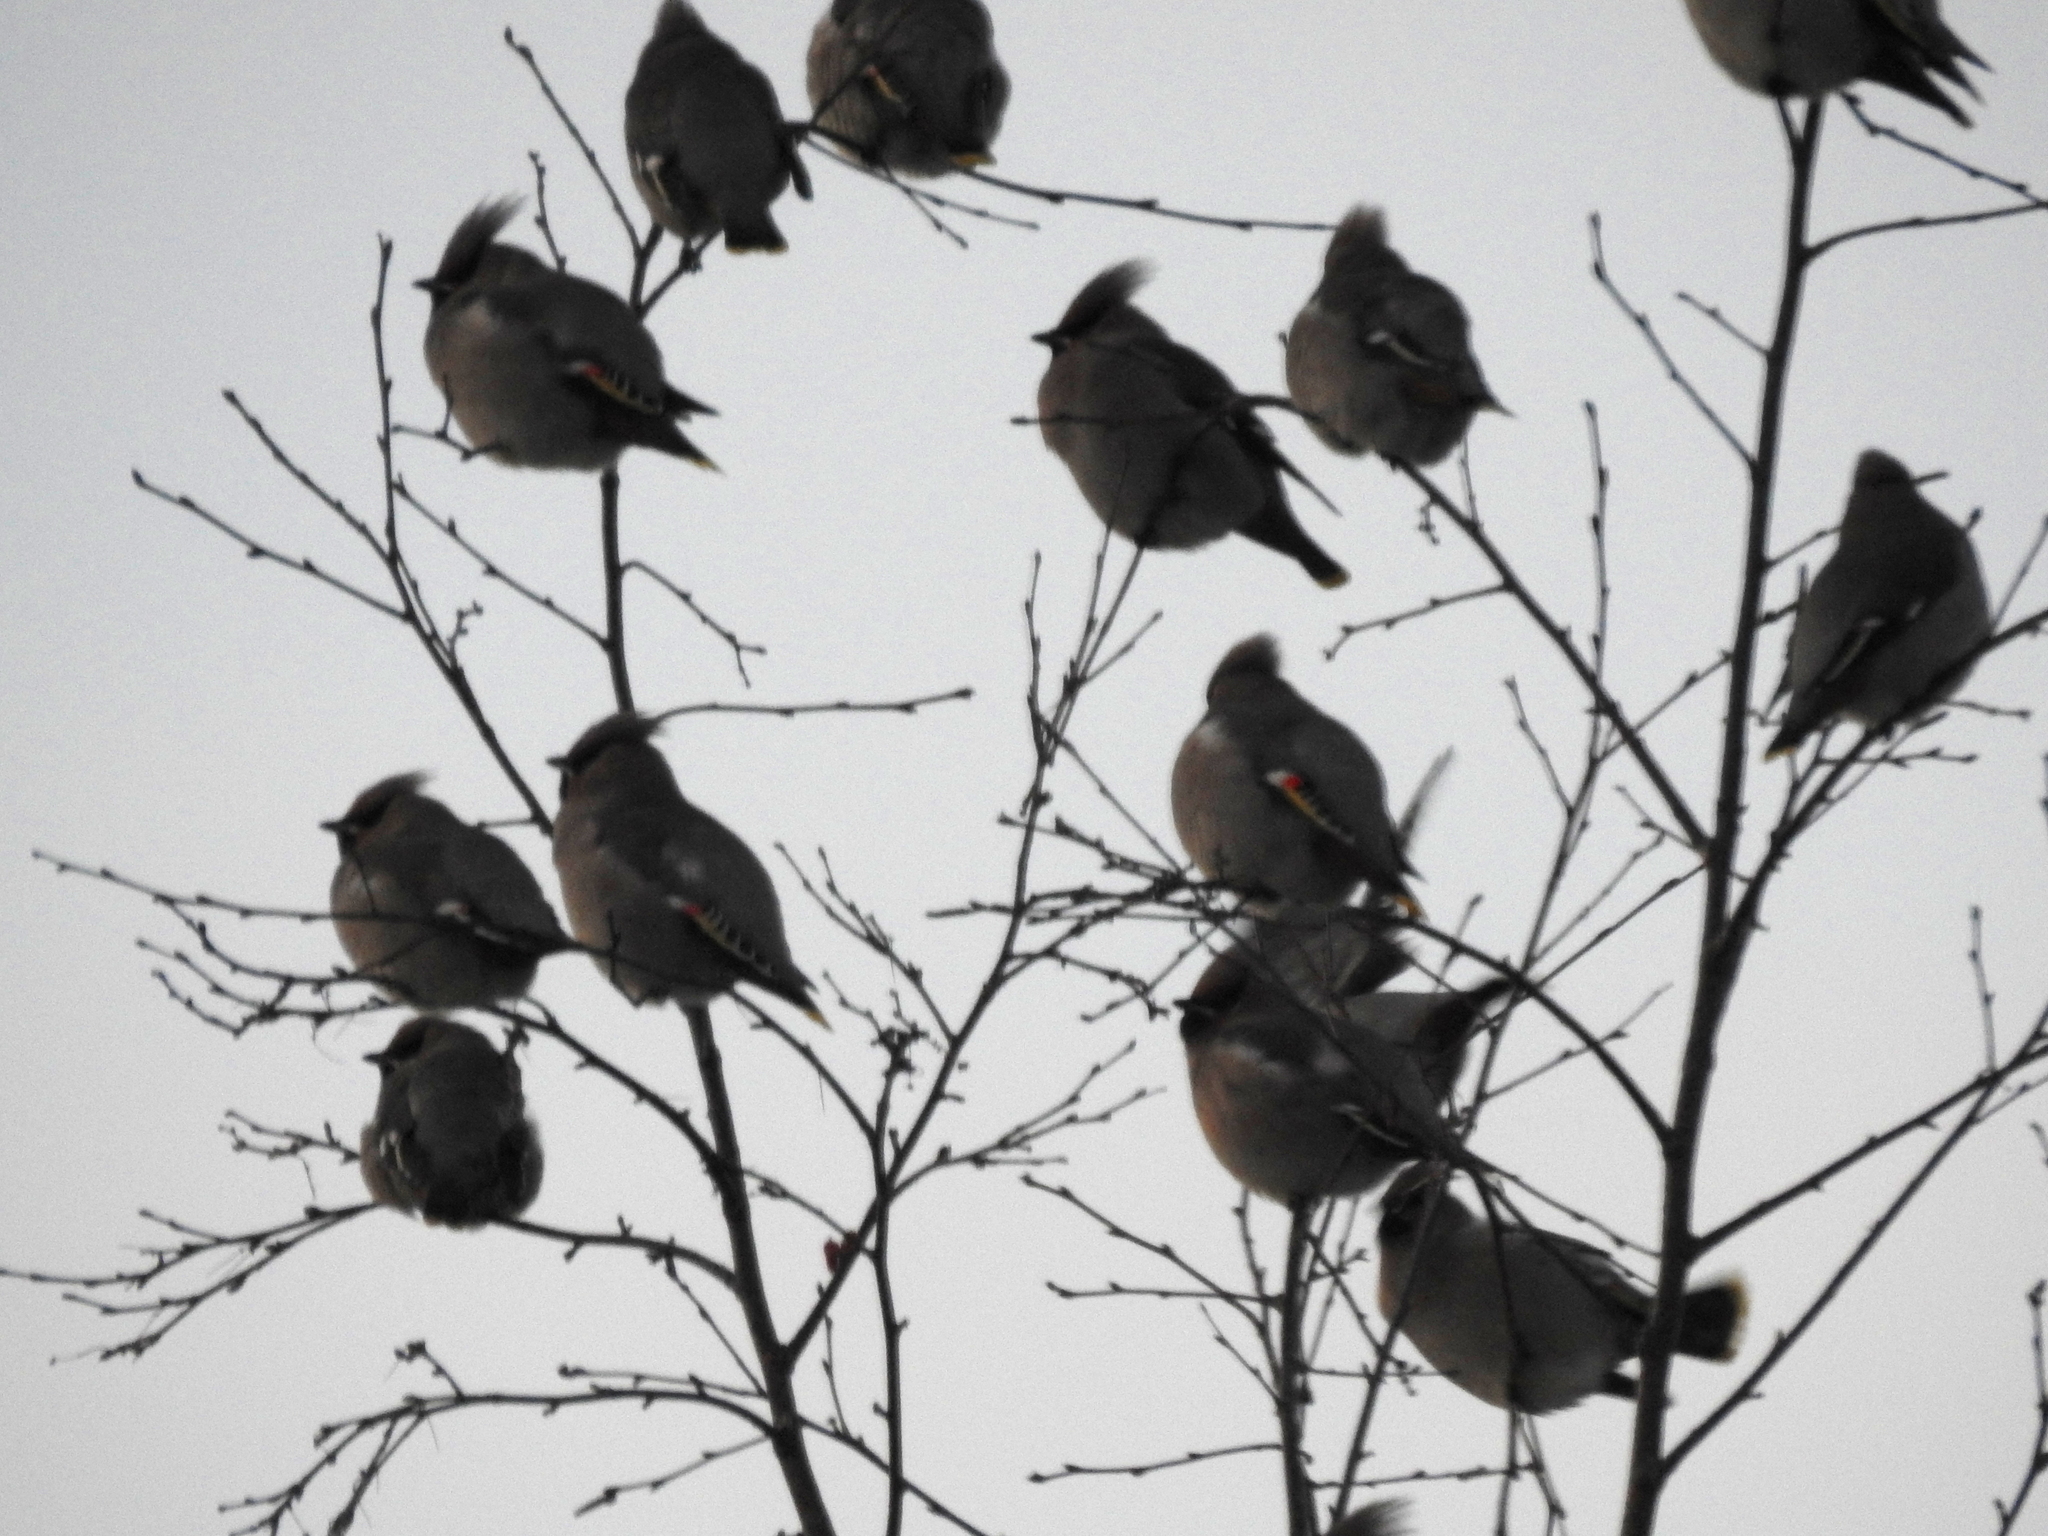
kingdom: Animalia
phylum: Chordata
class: Aves
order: Passeriformes
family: Bombycillidae
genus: Bombycilla
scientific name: Bombycilla garrulus
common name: Bohemian waxwing
